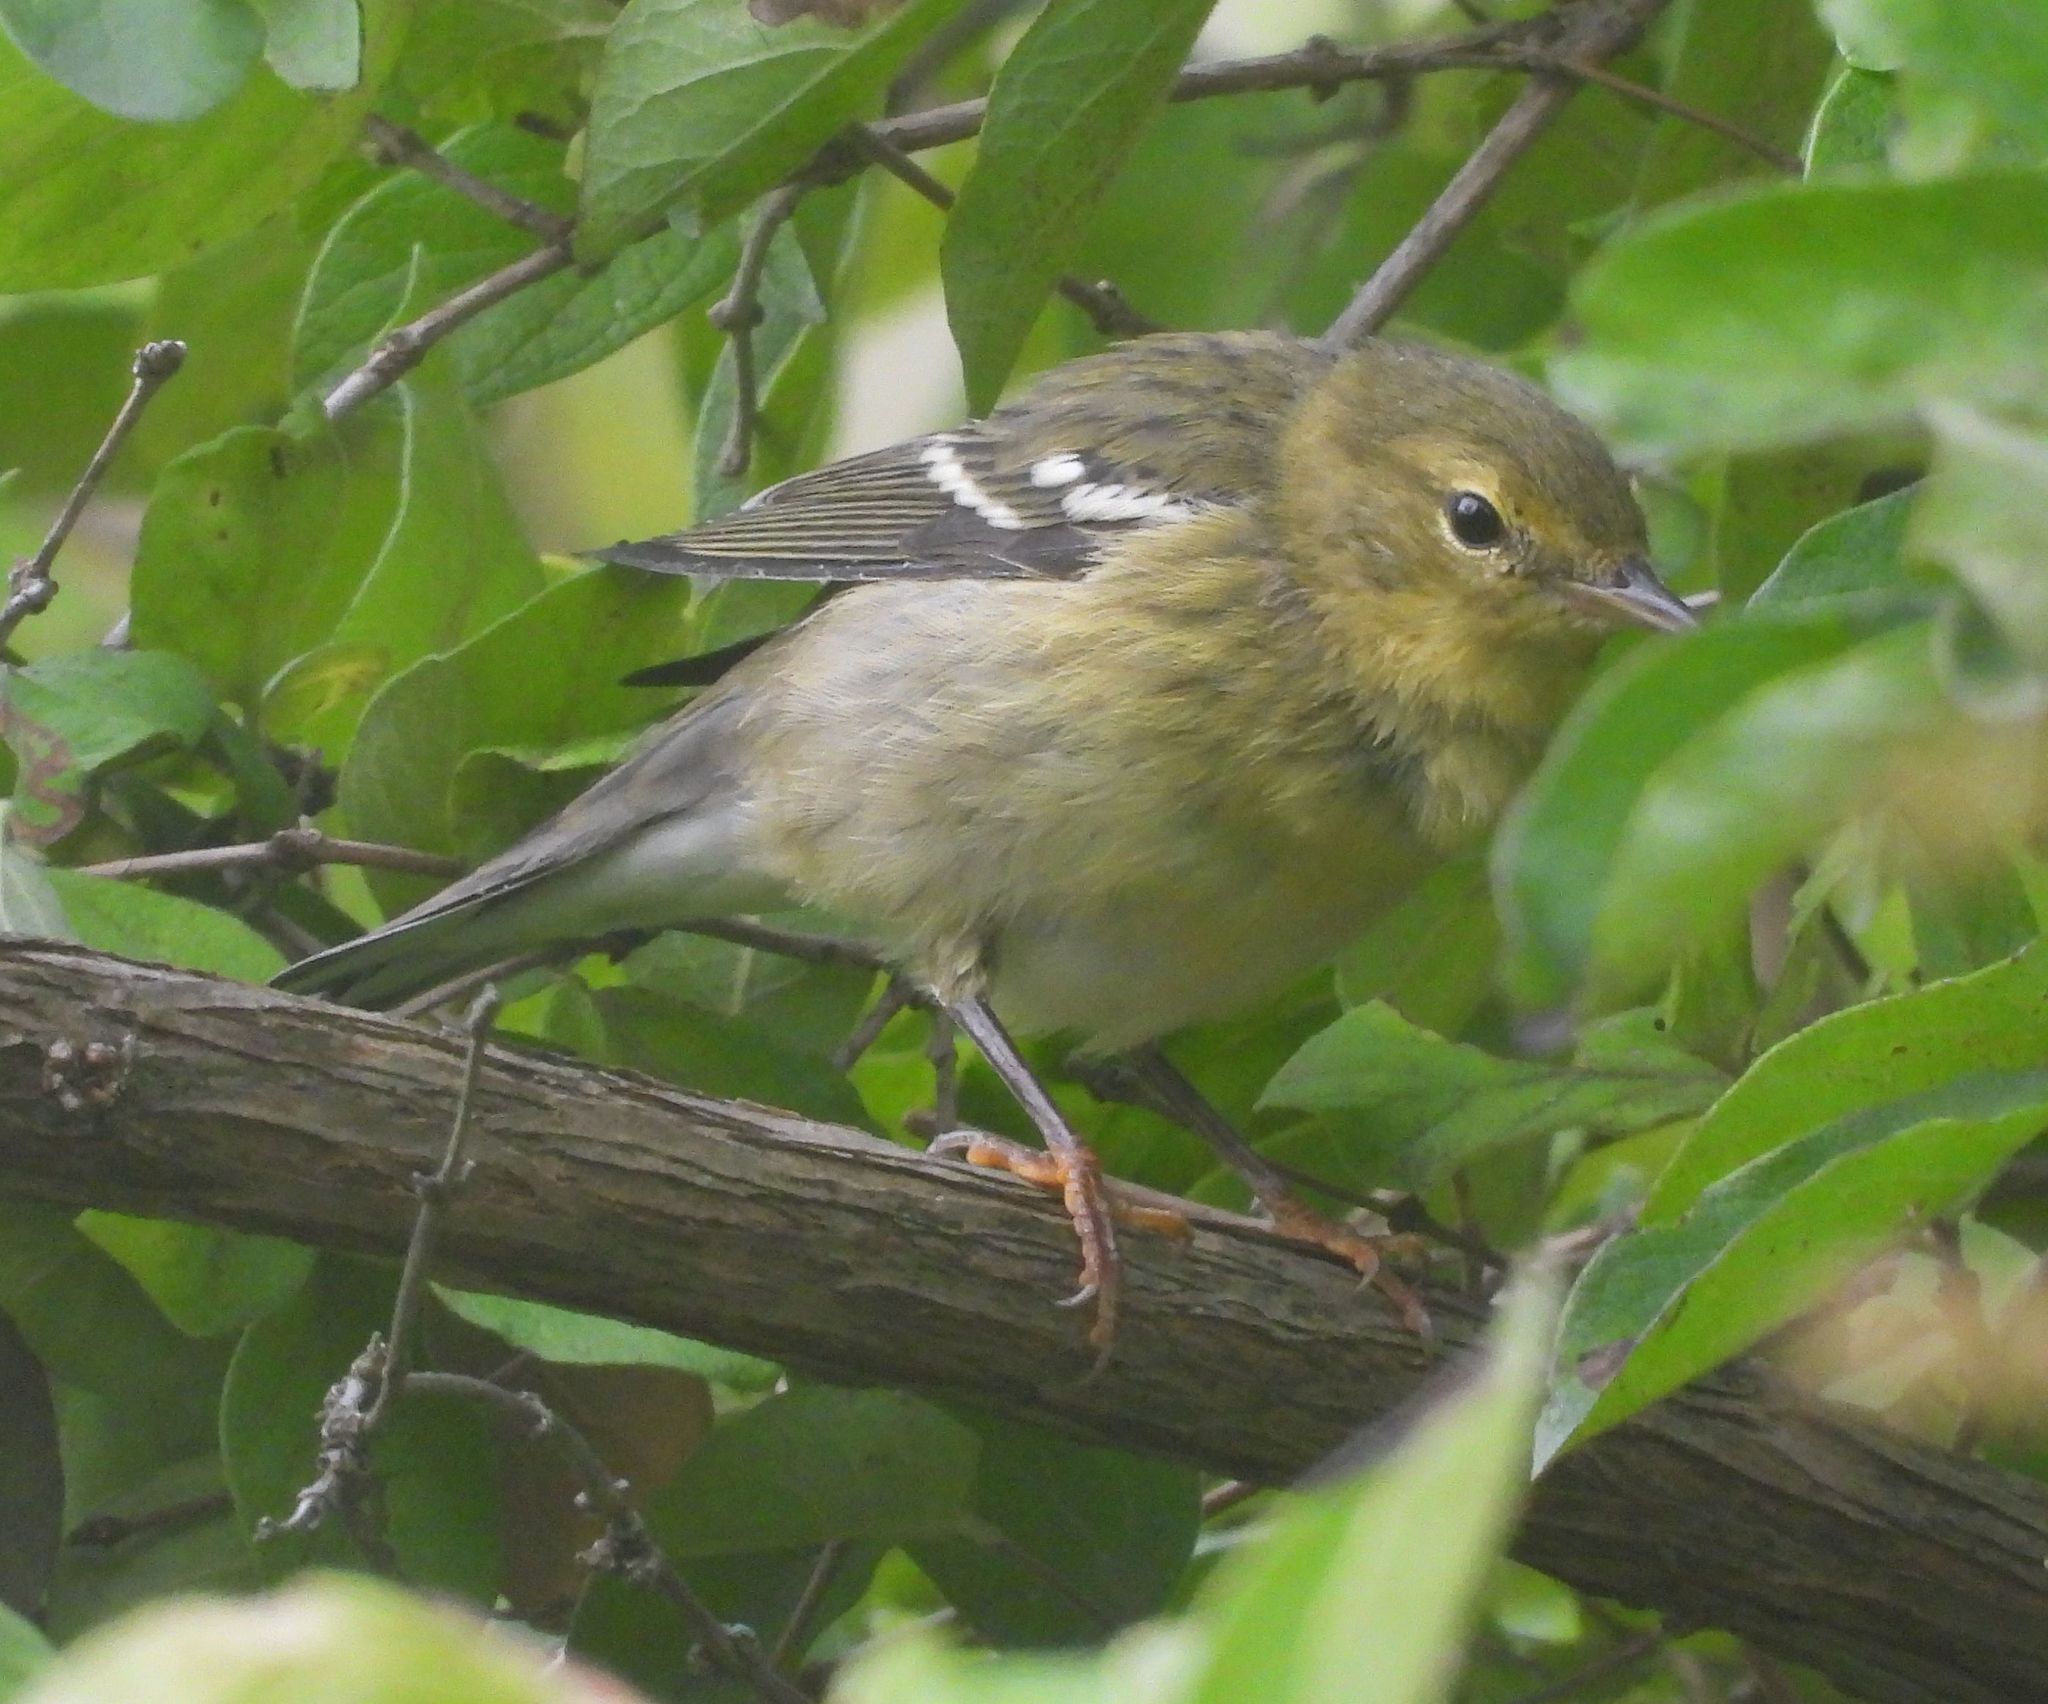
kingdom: Animalia
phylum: Chordata
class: Aves
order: Passeriformes
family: Parulidae
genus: Setophaga
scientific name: Setophaga striata
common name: Blackpoll warbler
